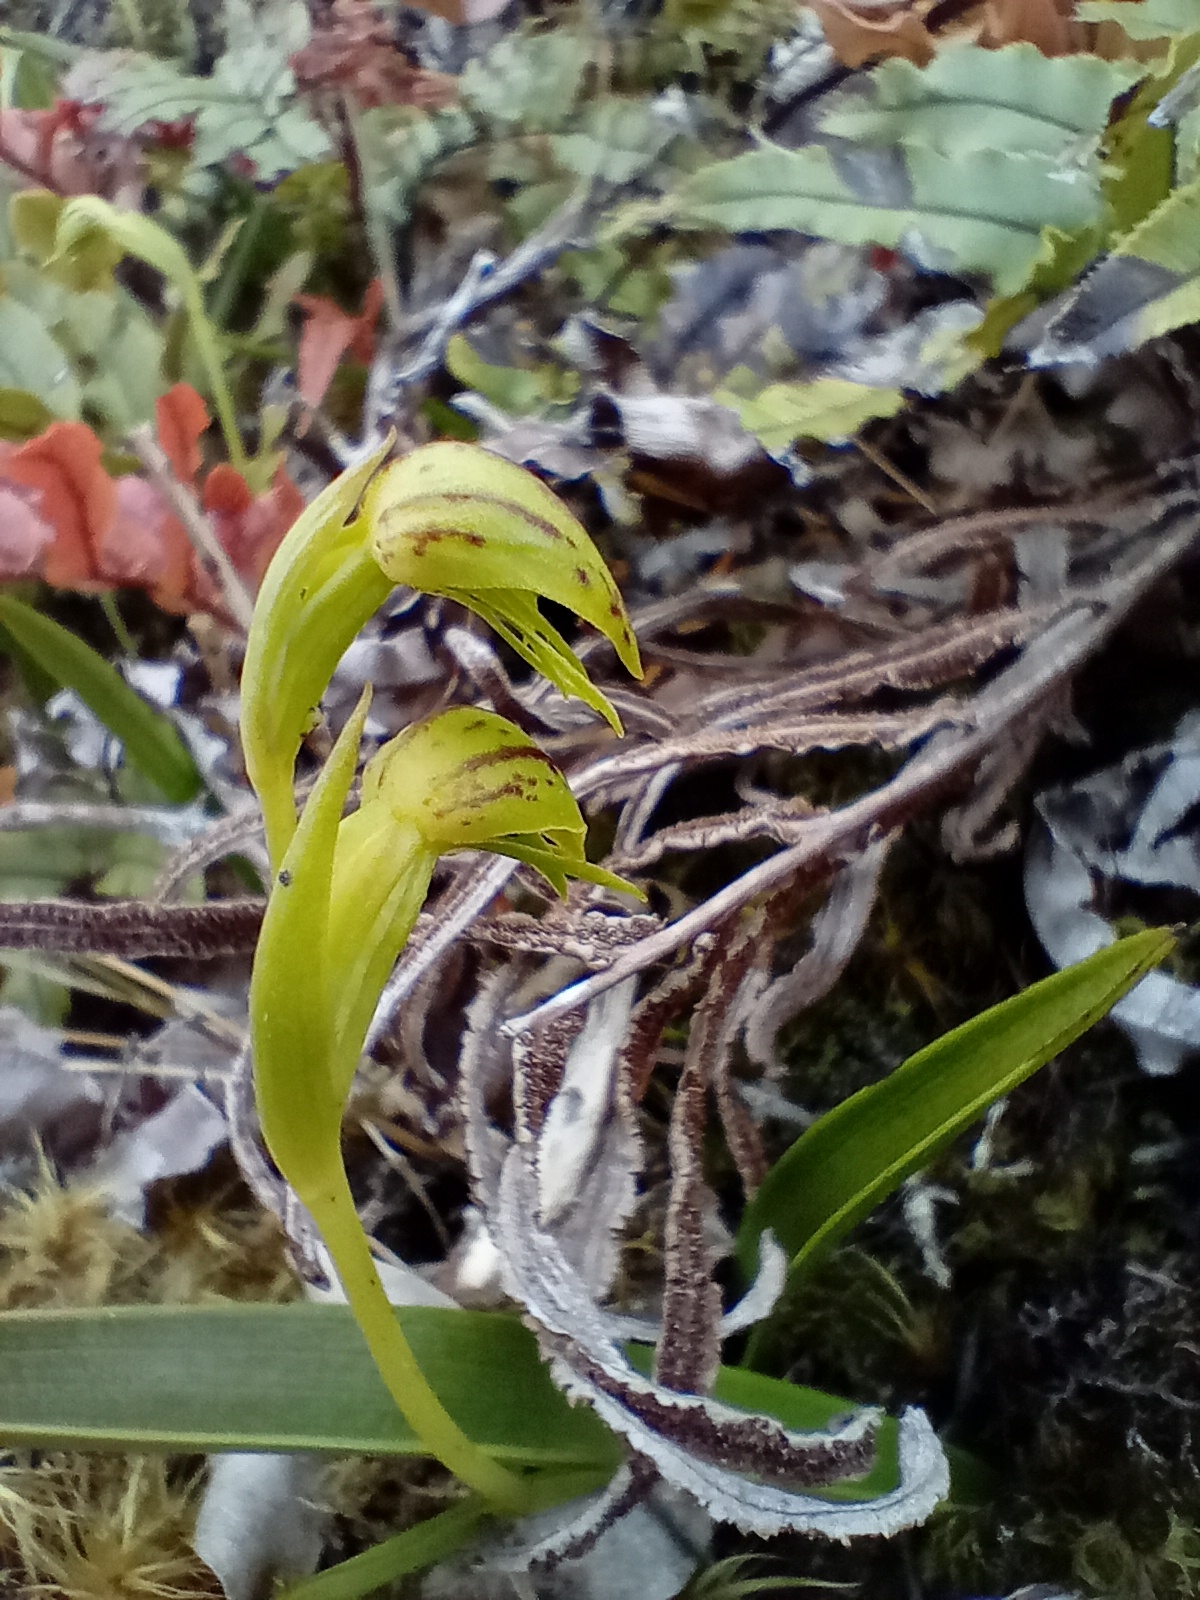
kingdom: Plantae
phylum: Tracheophyta
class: Liliopsida
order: Asparagales
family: Orchidaceae
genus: Waireia
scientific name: Waireia stenopetala
